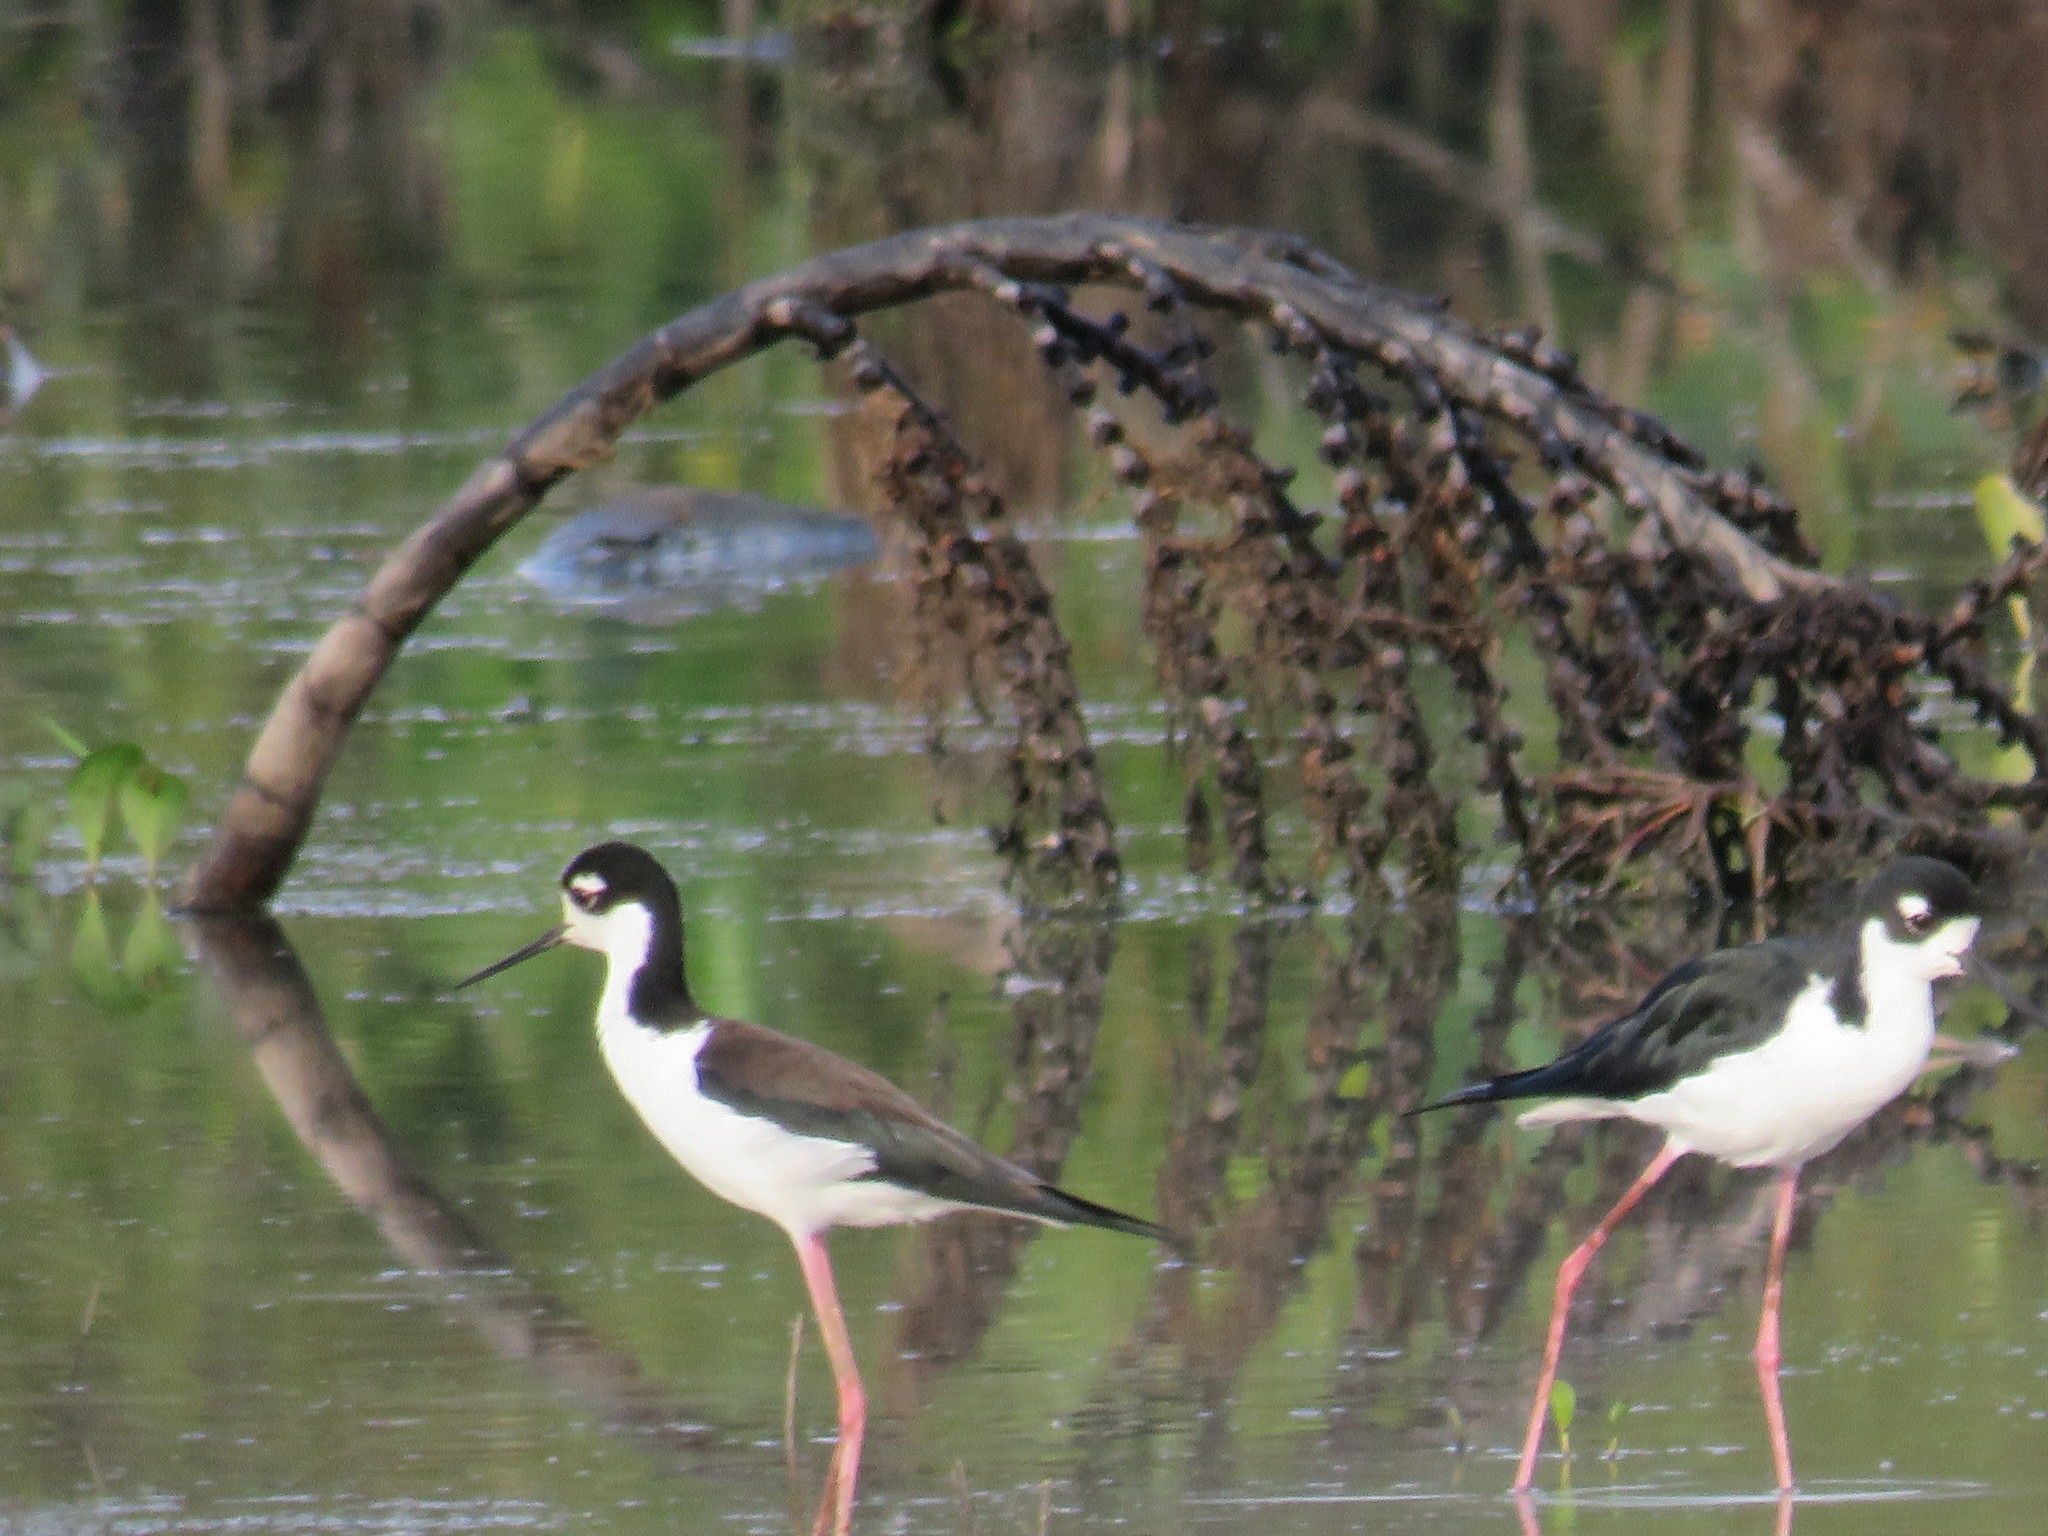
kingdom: Animalia
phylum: Chordata
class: Aves
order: Charadriiformes
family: Recurvirostridae
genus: Himantopus
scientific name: Himantopus mexicanus
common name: Black-necked stilt
